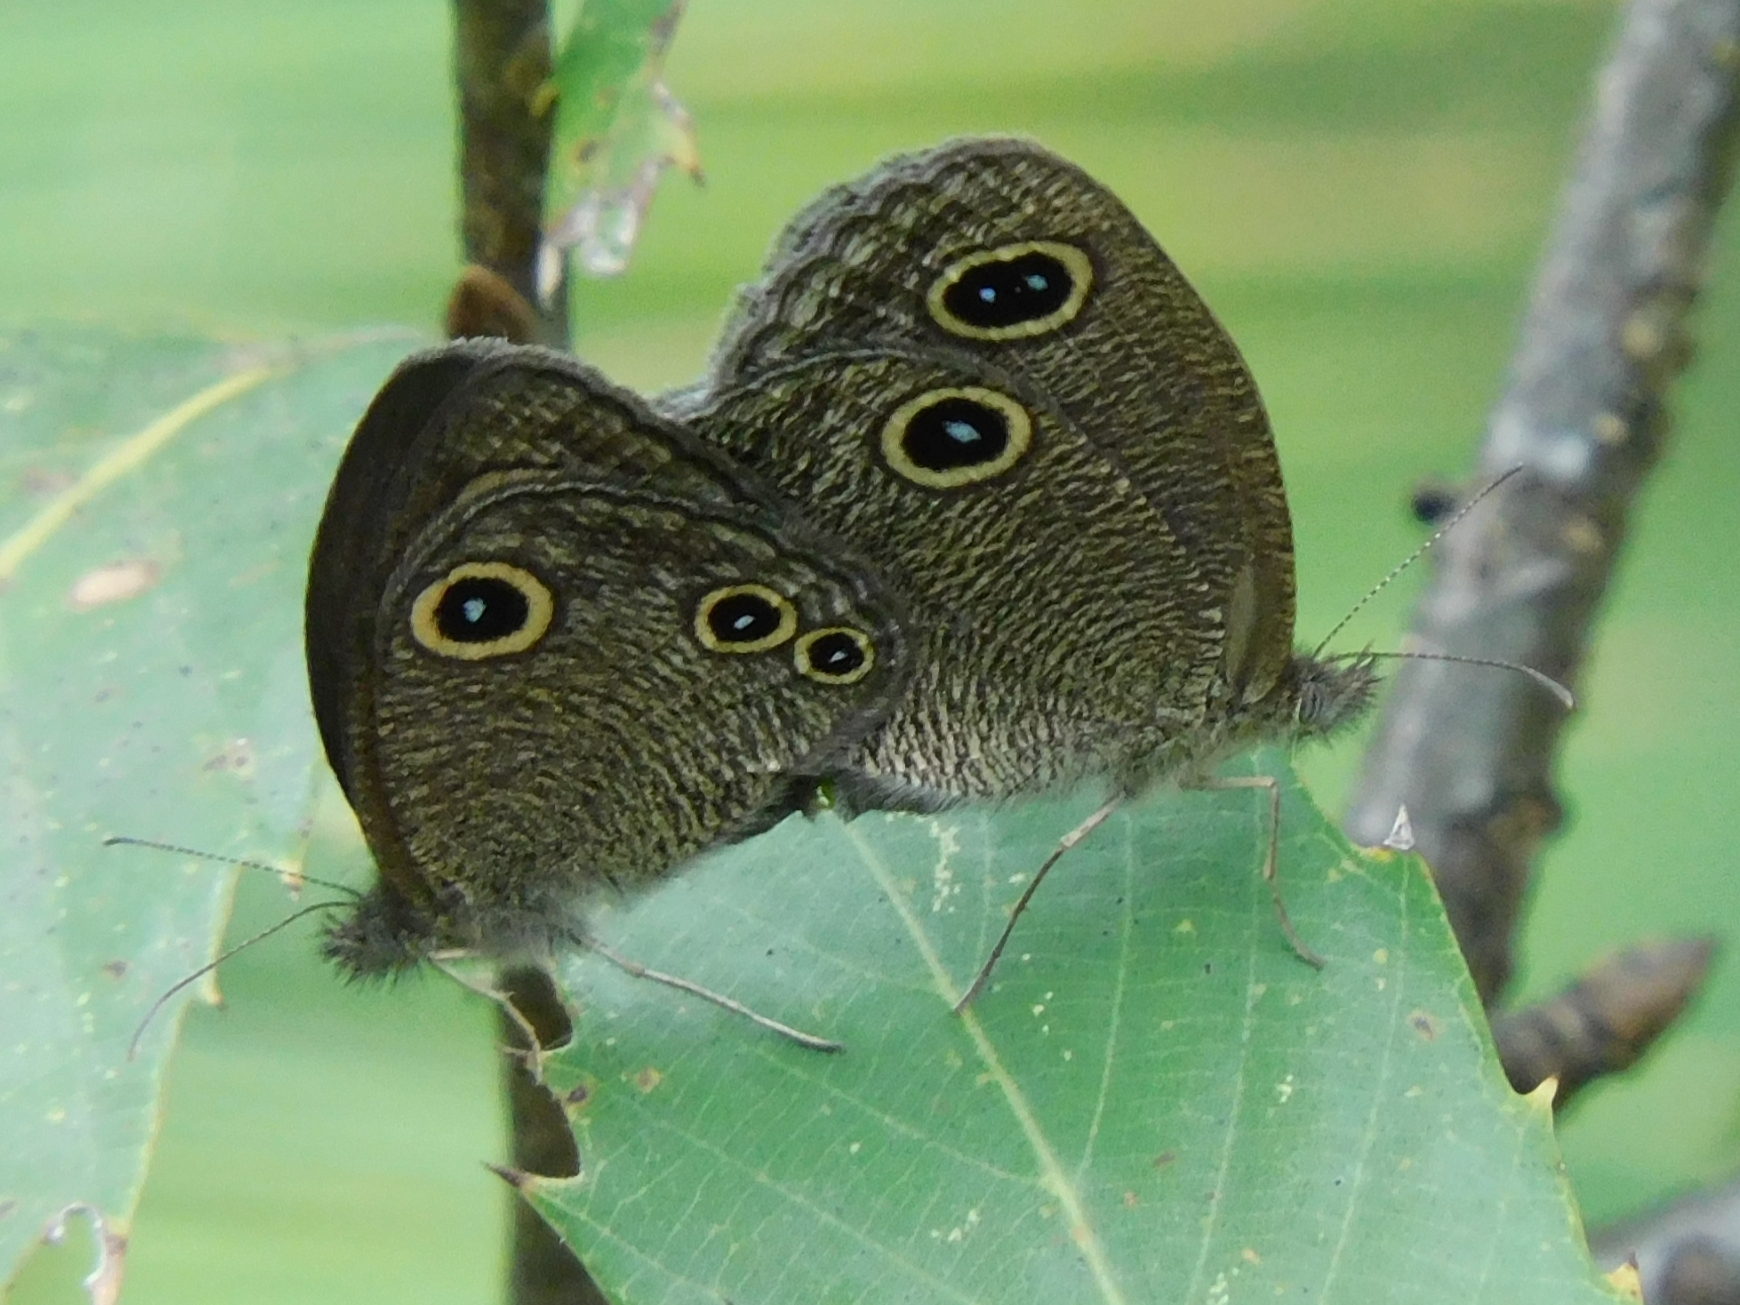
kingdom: Animalia
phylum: Arthropoda
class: Insecta
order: Lepidoptera
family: Nymphalidae
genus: Ypthima
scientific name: Ypthima nareda
